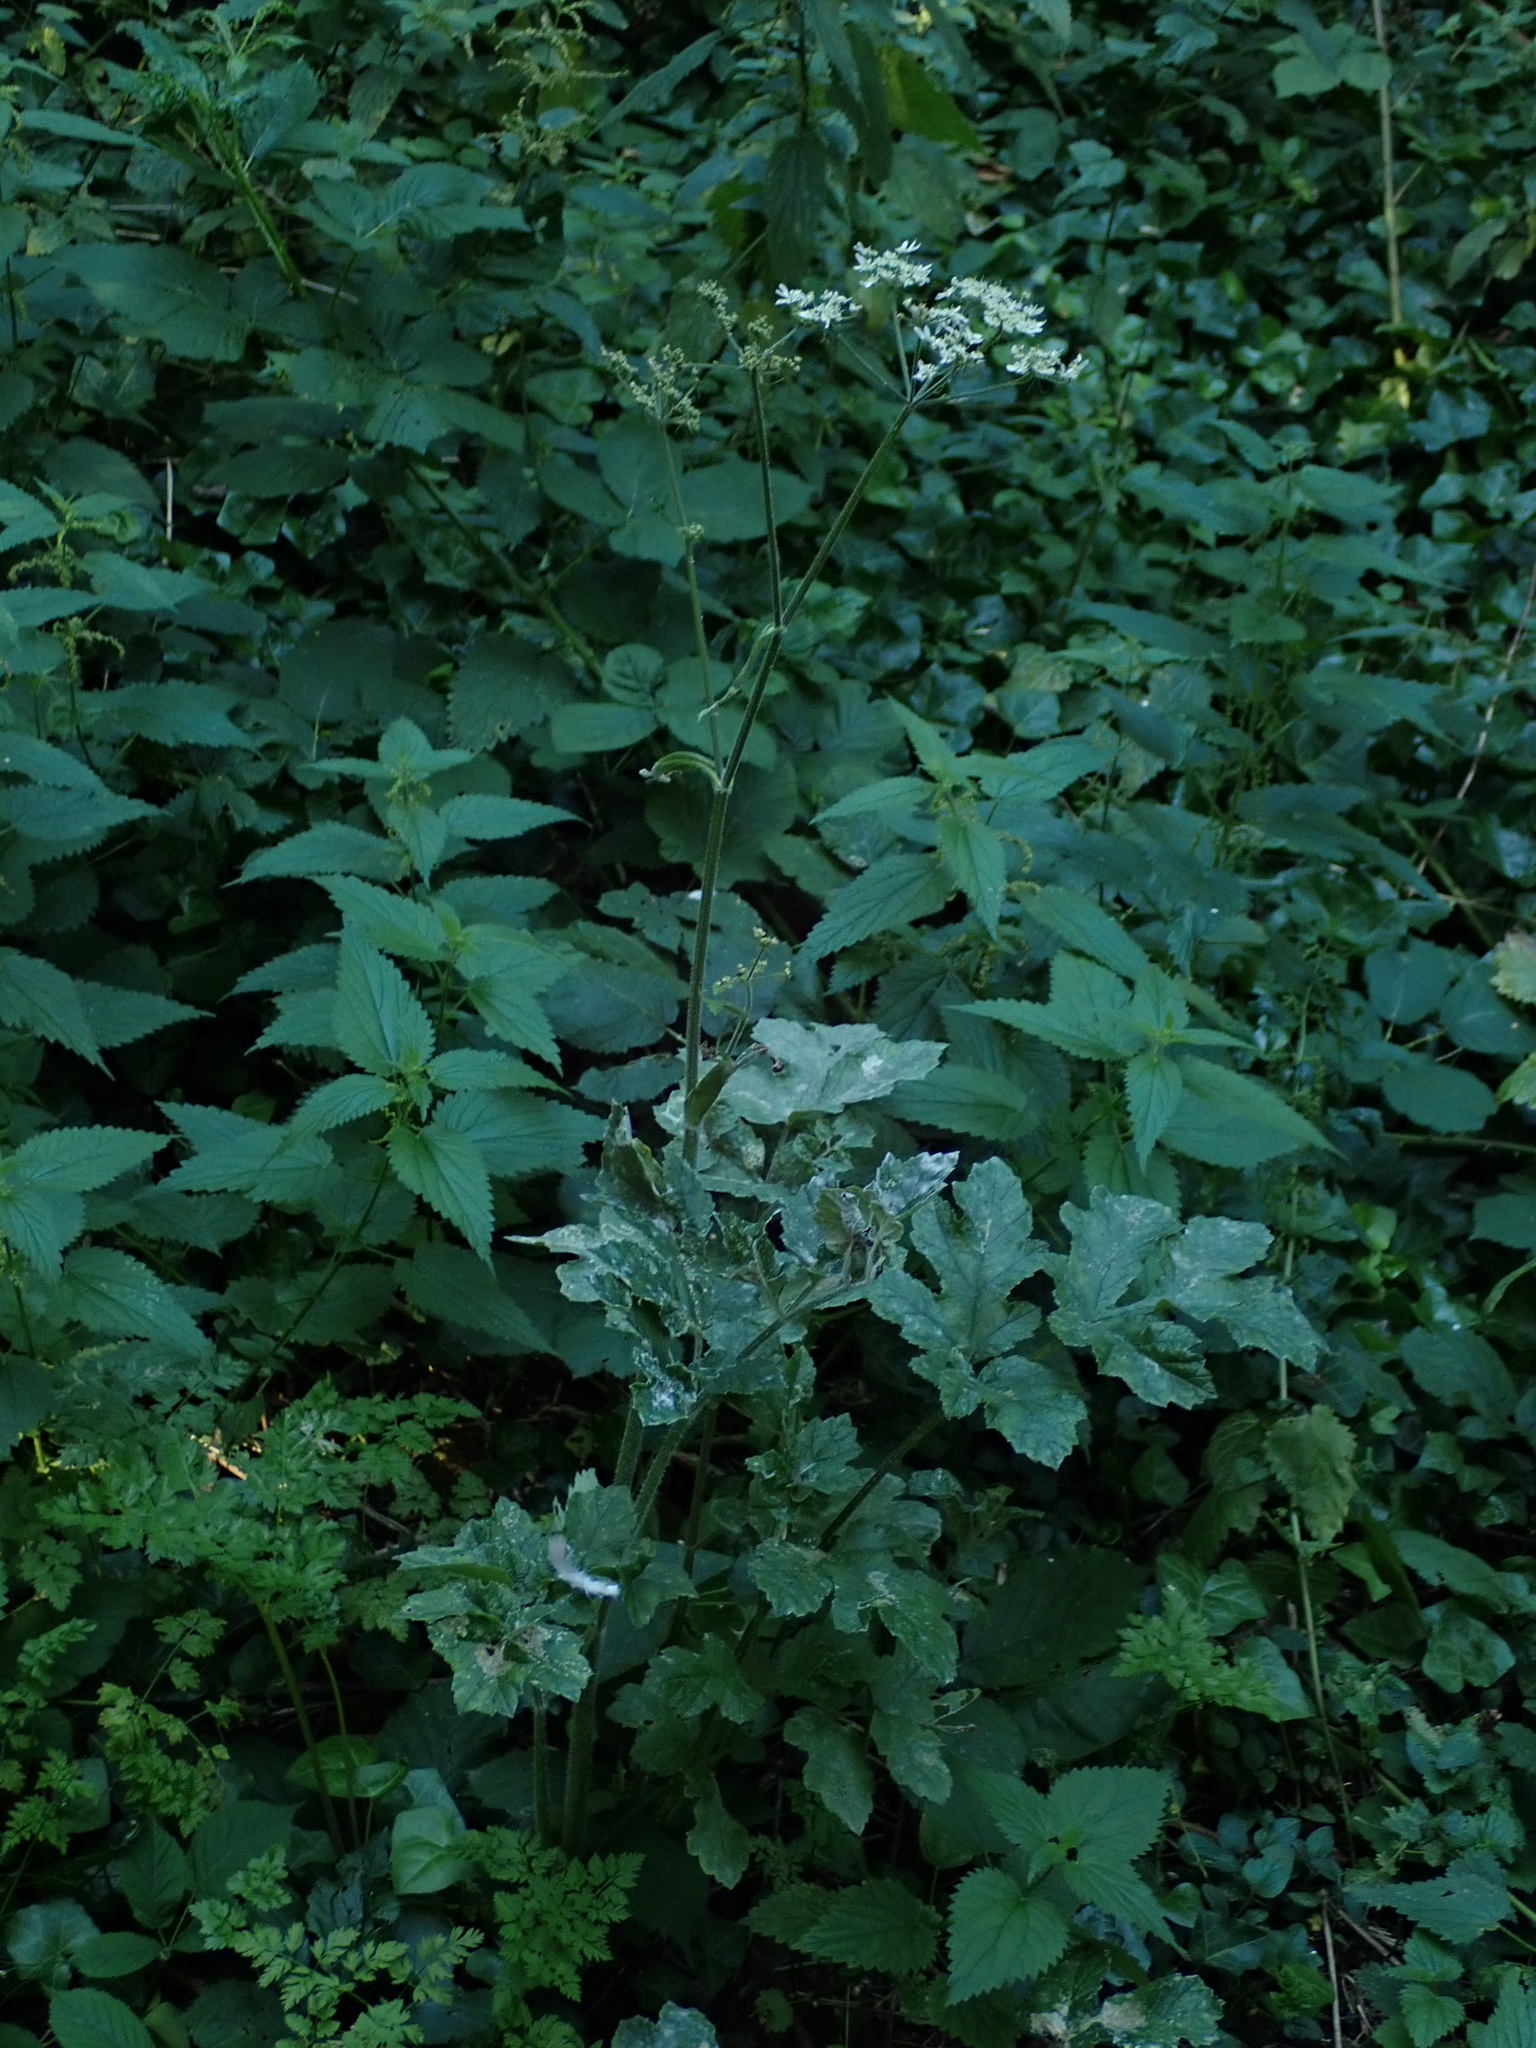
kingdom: Plantae
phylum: Tracheophyta
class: Magnoliopsida
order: Apiales
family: Apiaceae
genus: Heracleum
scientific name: Heracleum sphondylium
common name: Hogweed
